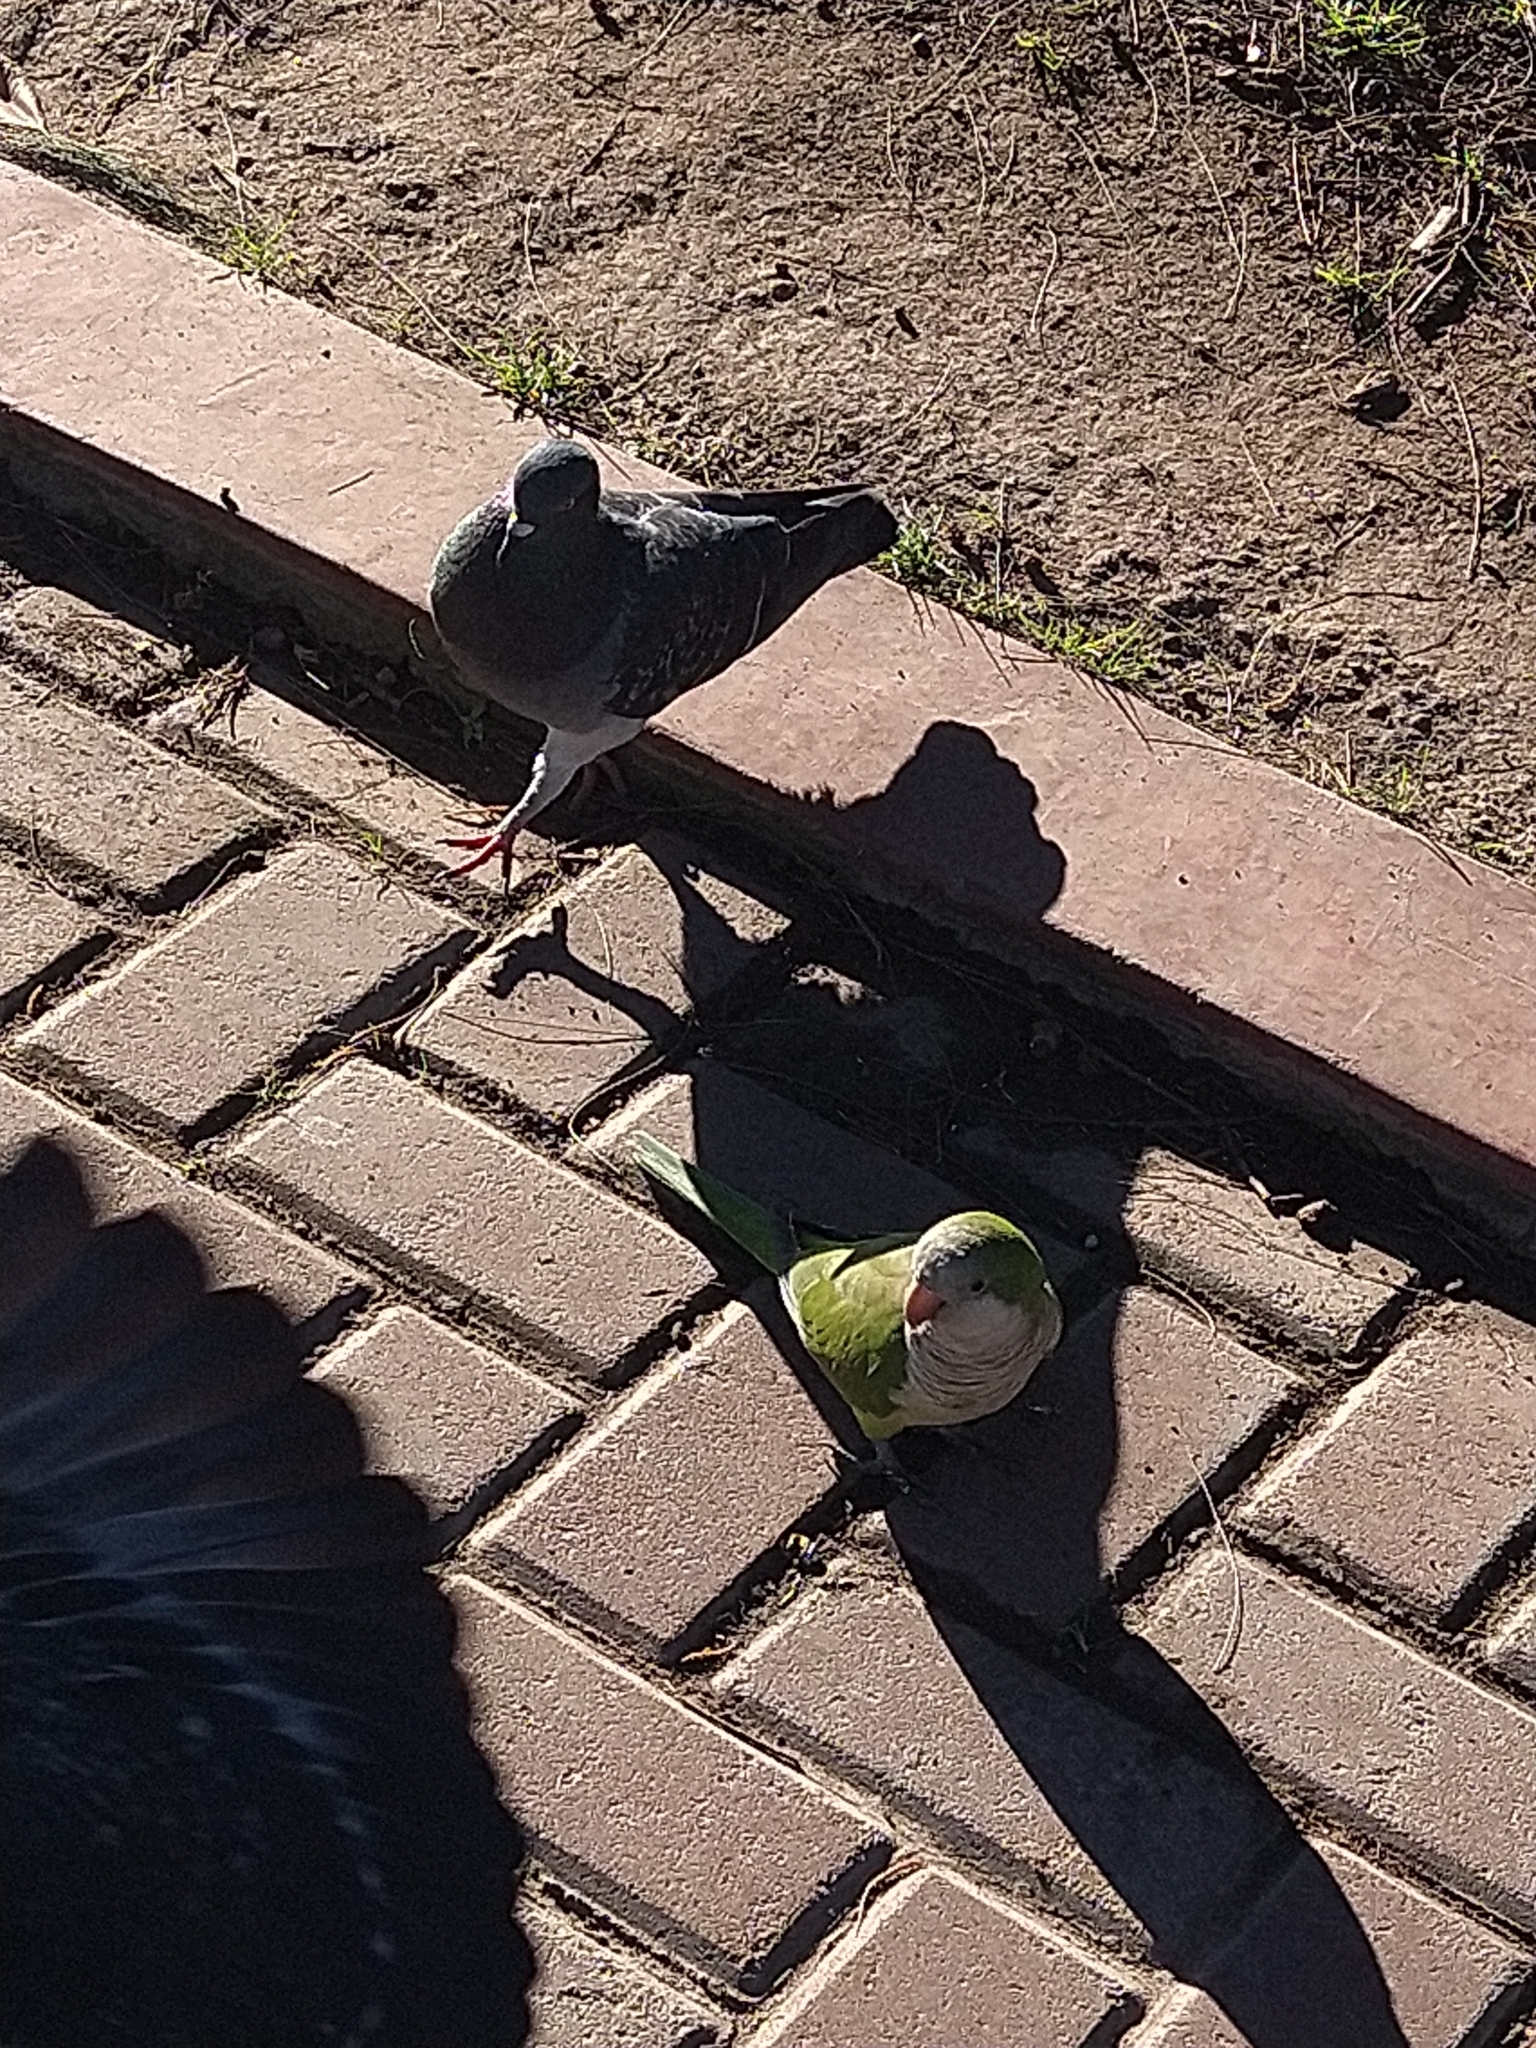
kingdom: Animalia
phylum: Chordata
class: Aves
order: Psittaciformes
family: Psittacidae
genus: Myiopsitta
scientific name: Myiopsitta monachus
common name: Monk parakeet
